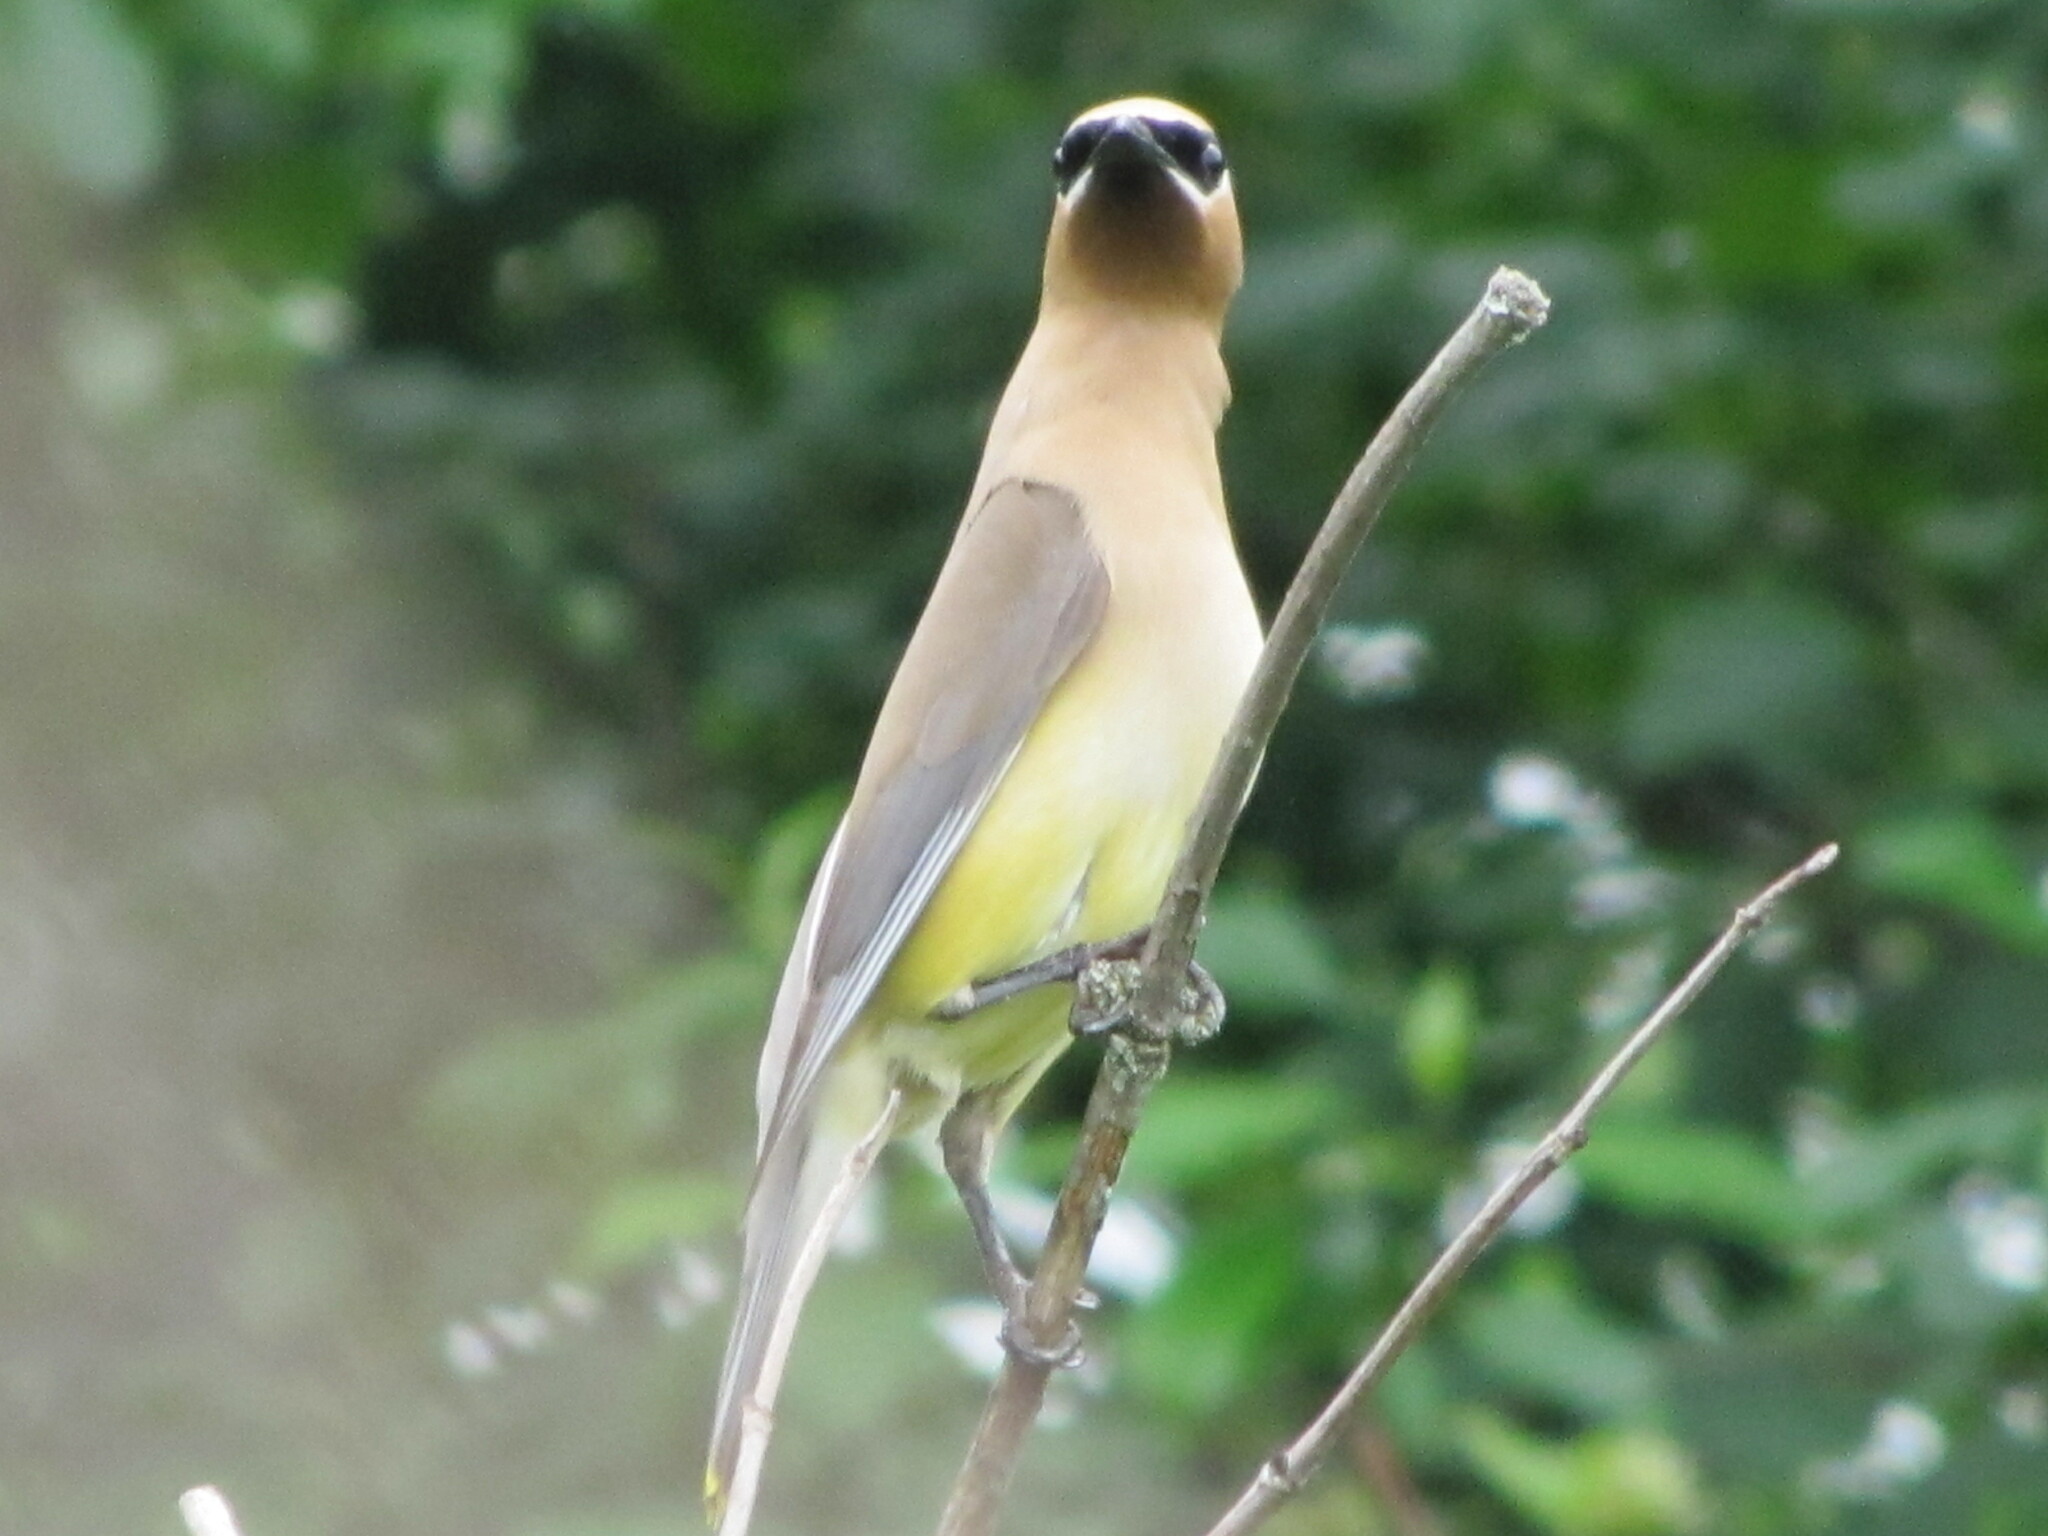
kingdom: Animalia
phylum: Chordata
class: Aves
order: Passeriformes
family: Bombycillidae
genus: Bombycilla
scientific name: Bombycilla cedrorum
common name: Cedar waxwing
